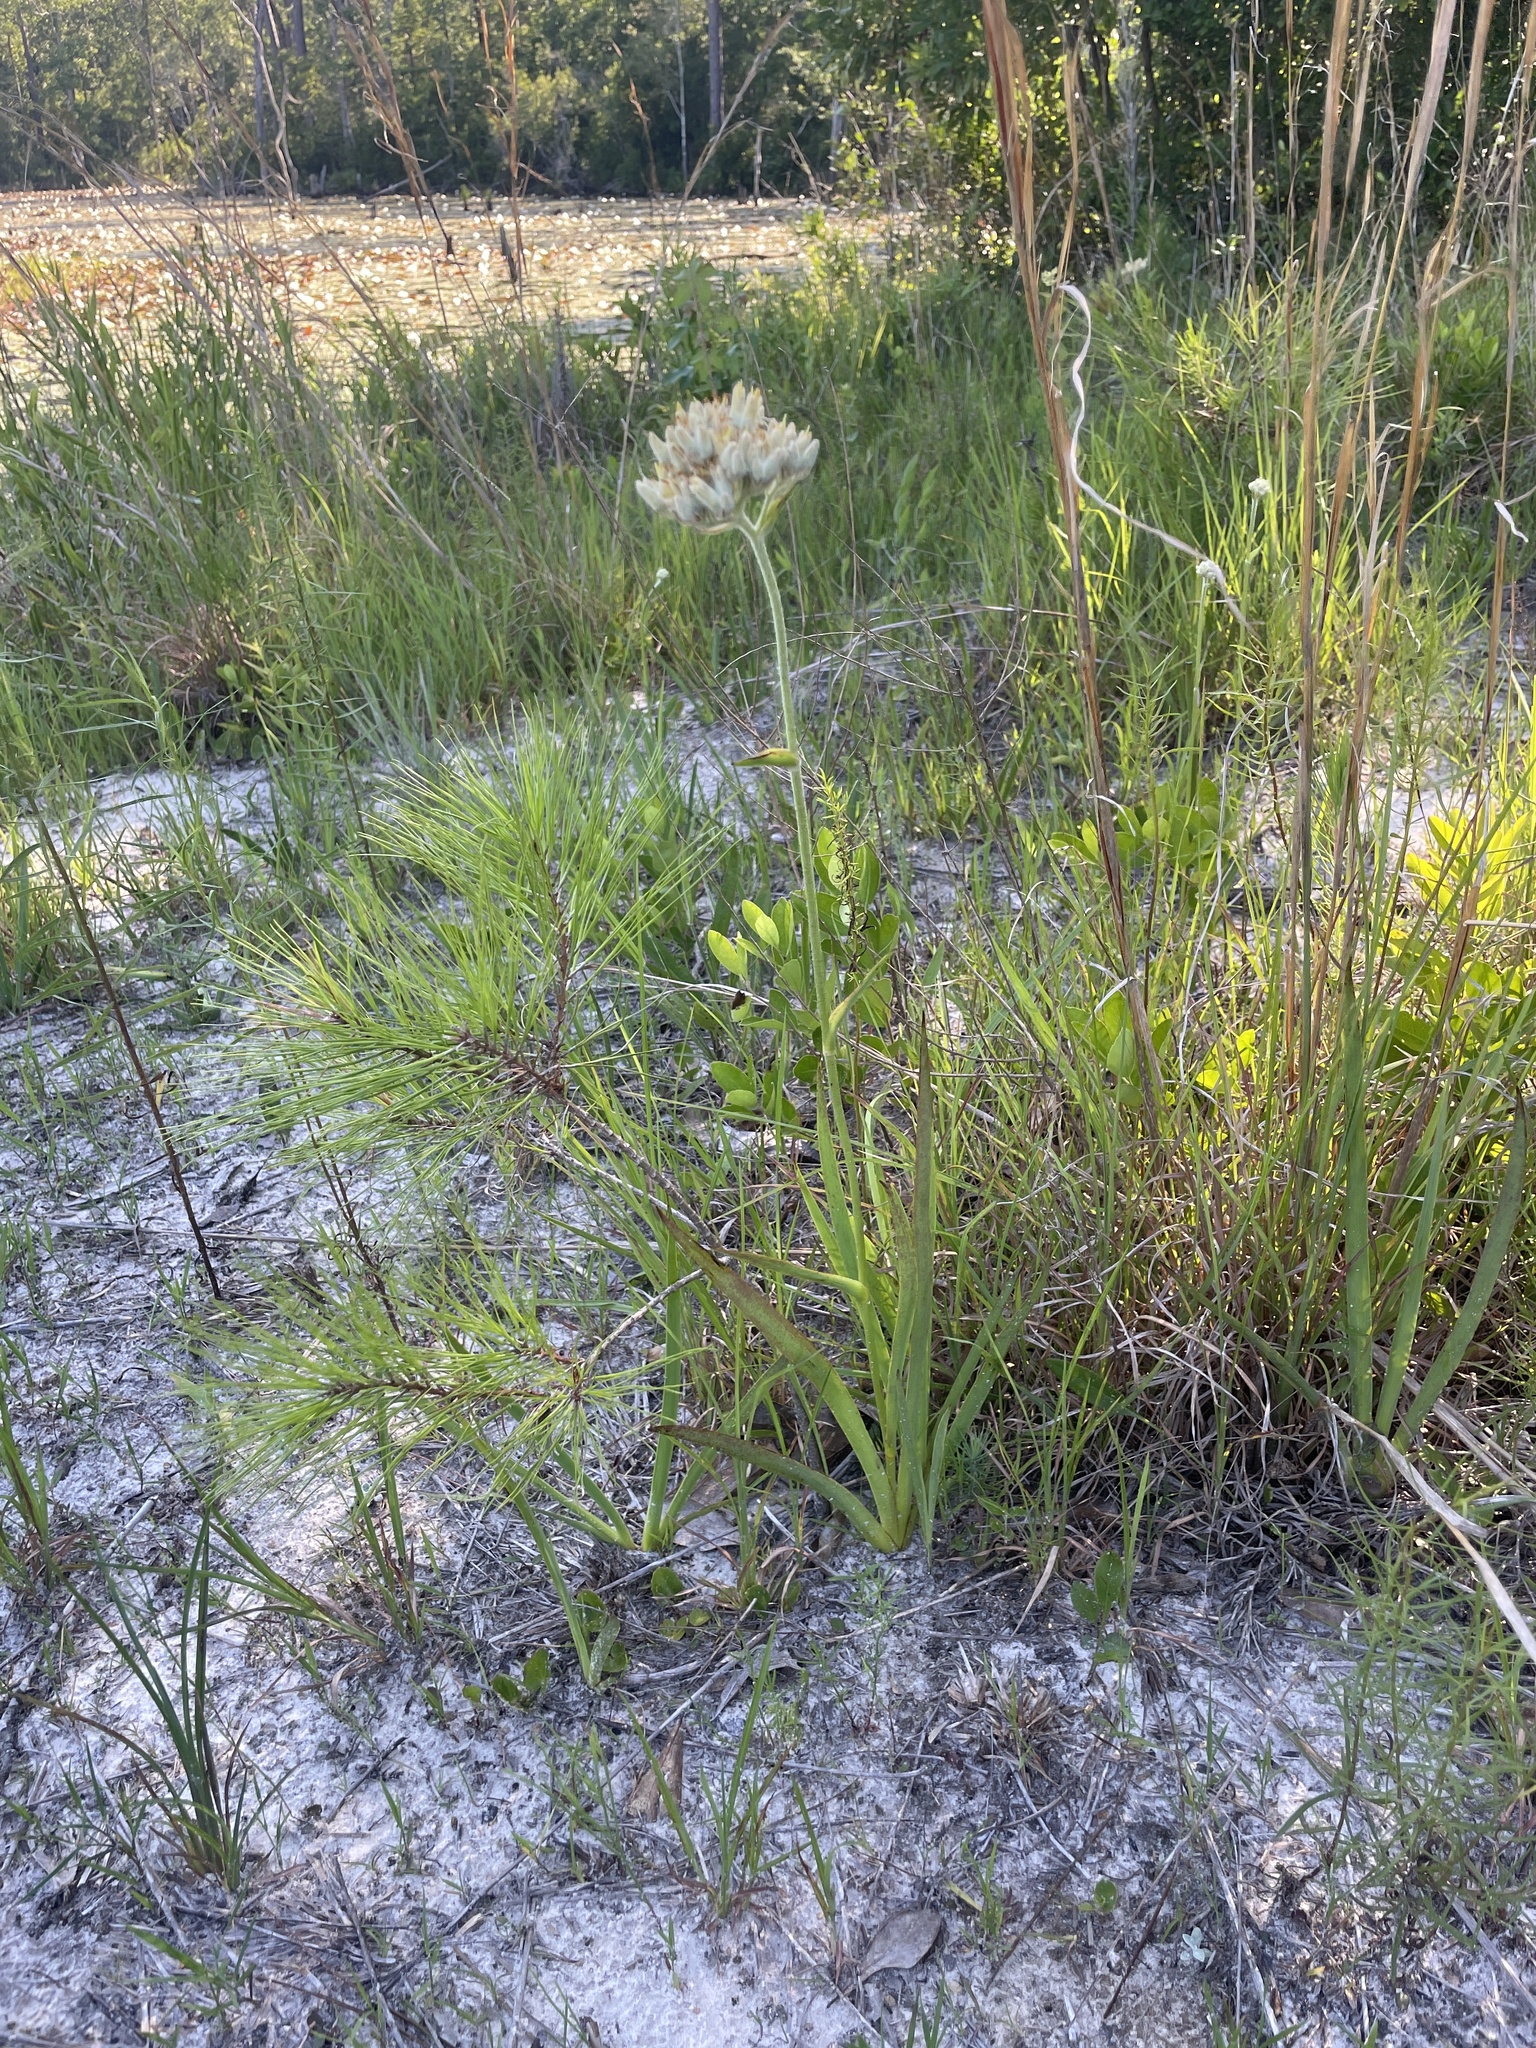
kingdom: Plantae
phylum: Tracheophyta
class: Liliopsida
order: Commelinales
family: Haemodoraceae
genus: Lachnanthes
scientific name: Lachnanthes caroliana
